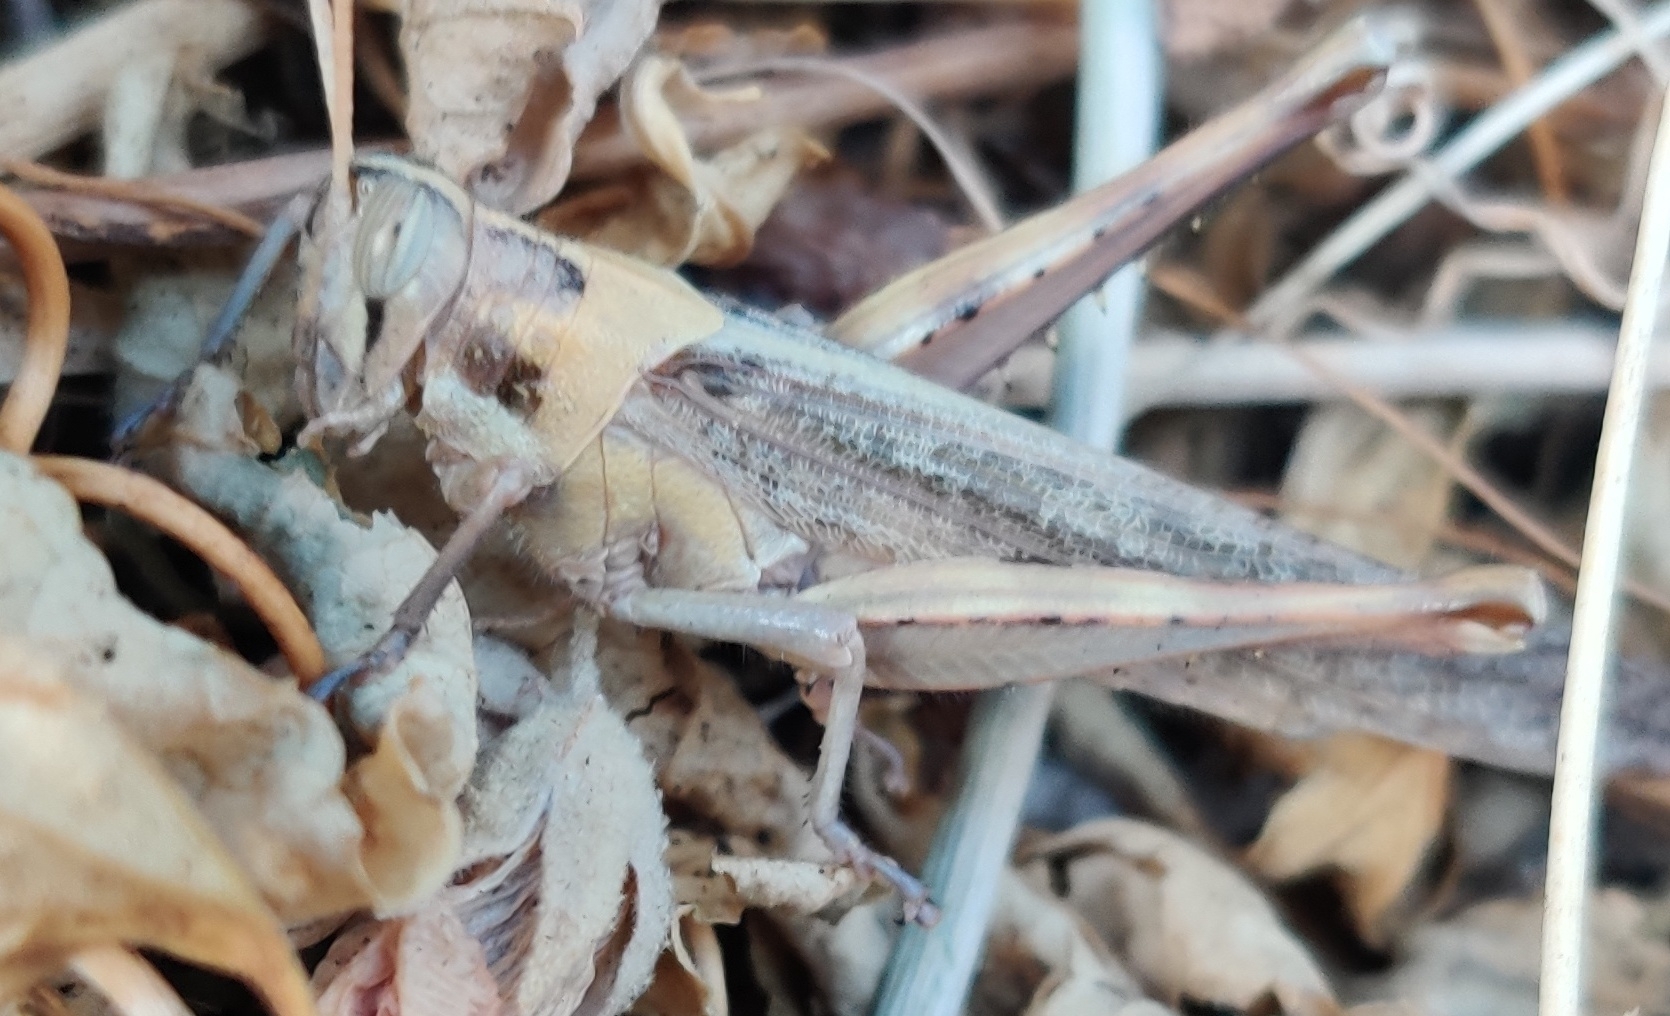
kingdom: Animalia
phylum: Arthropoda
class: Insecta
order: Orthoptera
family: Acrididae
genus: Schistocerca
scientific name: Schistocerca nitens
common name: Vagrant grasshopper
